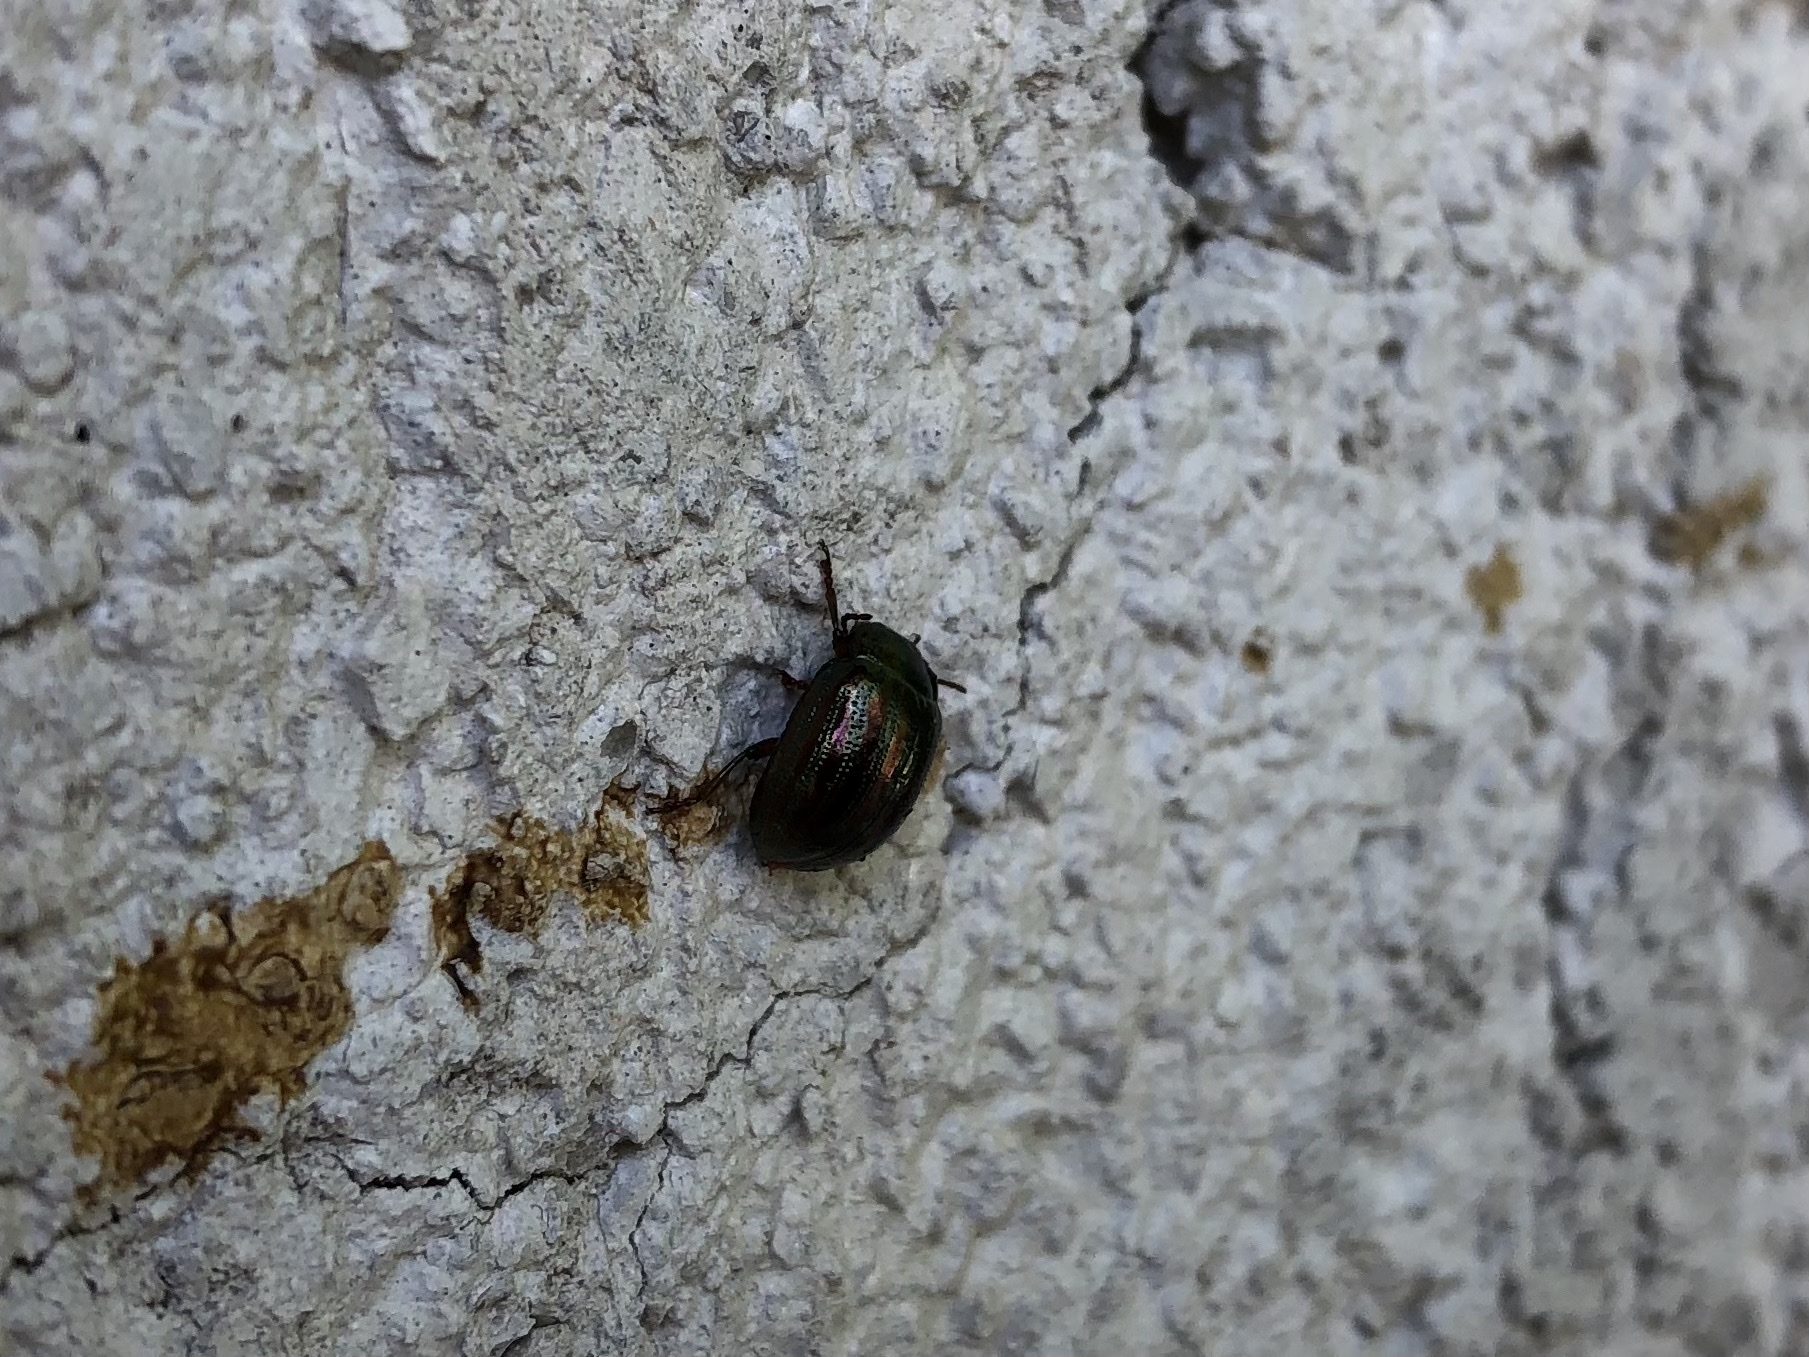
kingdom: Animalia
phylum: Arthropoda
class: Insecta
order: Coleoptera
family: Chrysomelidae
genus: Chrysolina
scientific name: Chrysolina americana
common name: Rosemary beetle
